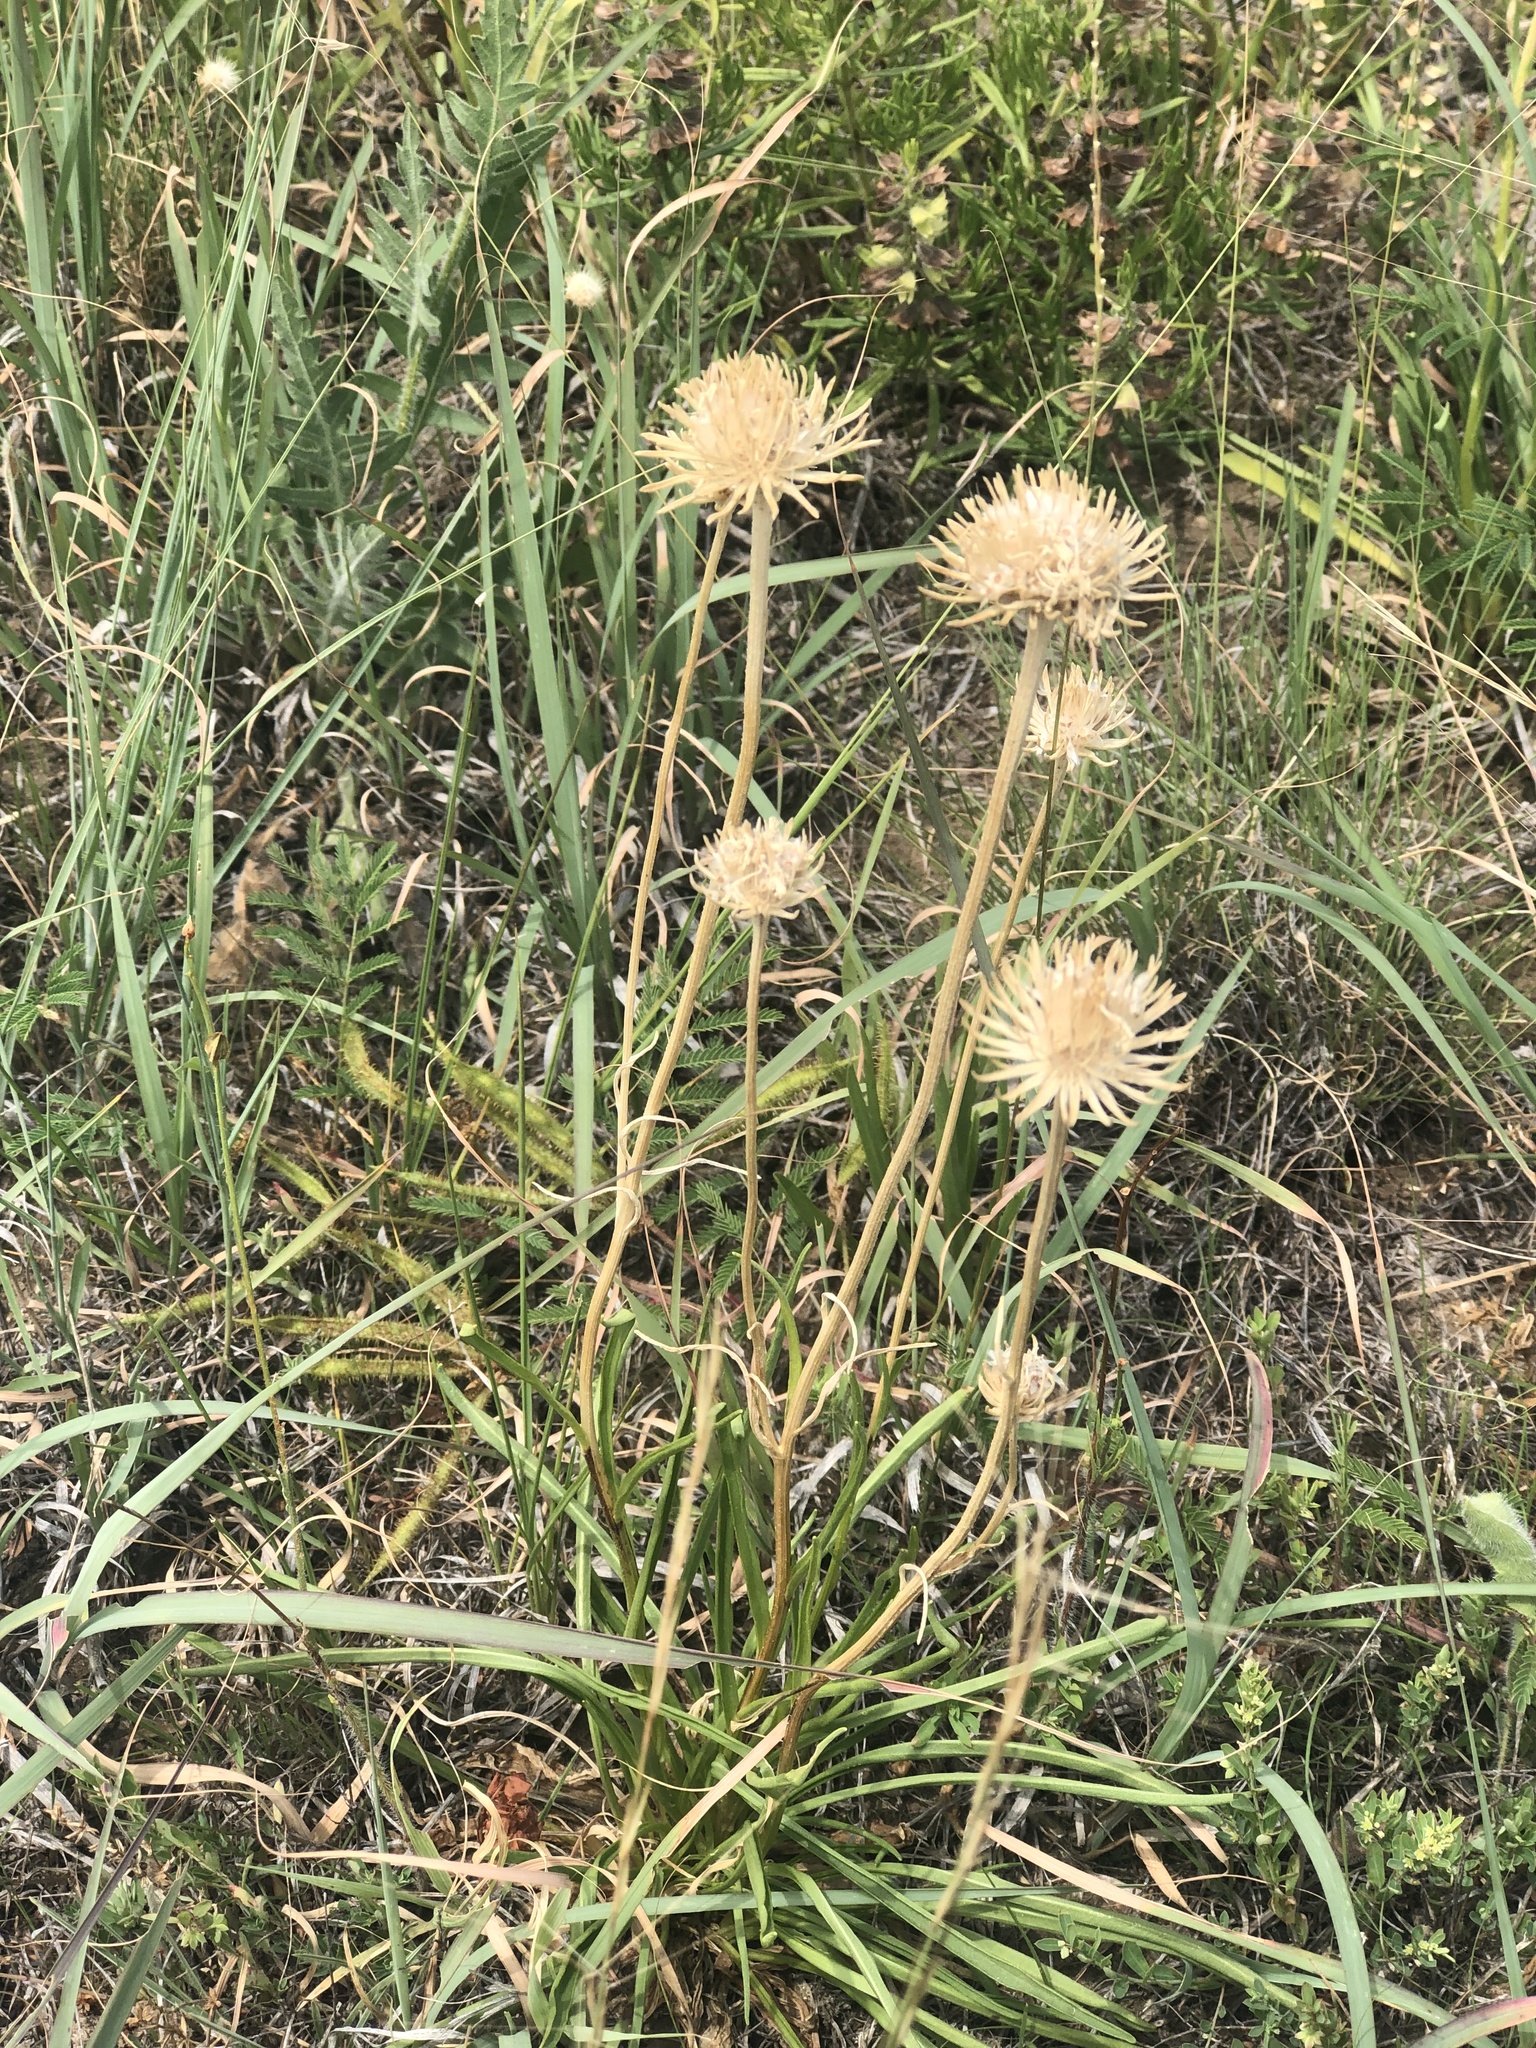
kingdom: Plantae
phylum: Tracheophyta
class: Magnoliopsida
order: Asterales
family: Asteraceae
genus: Marshallia
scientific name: Marshallia caespitosa
